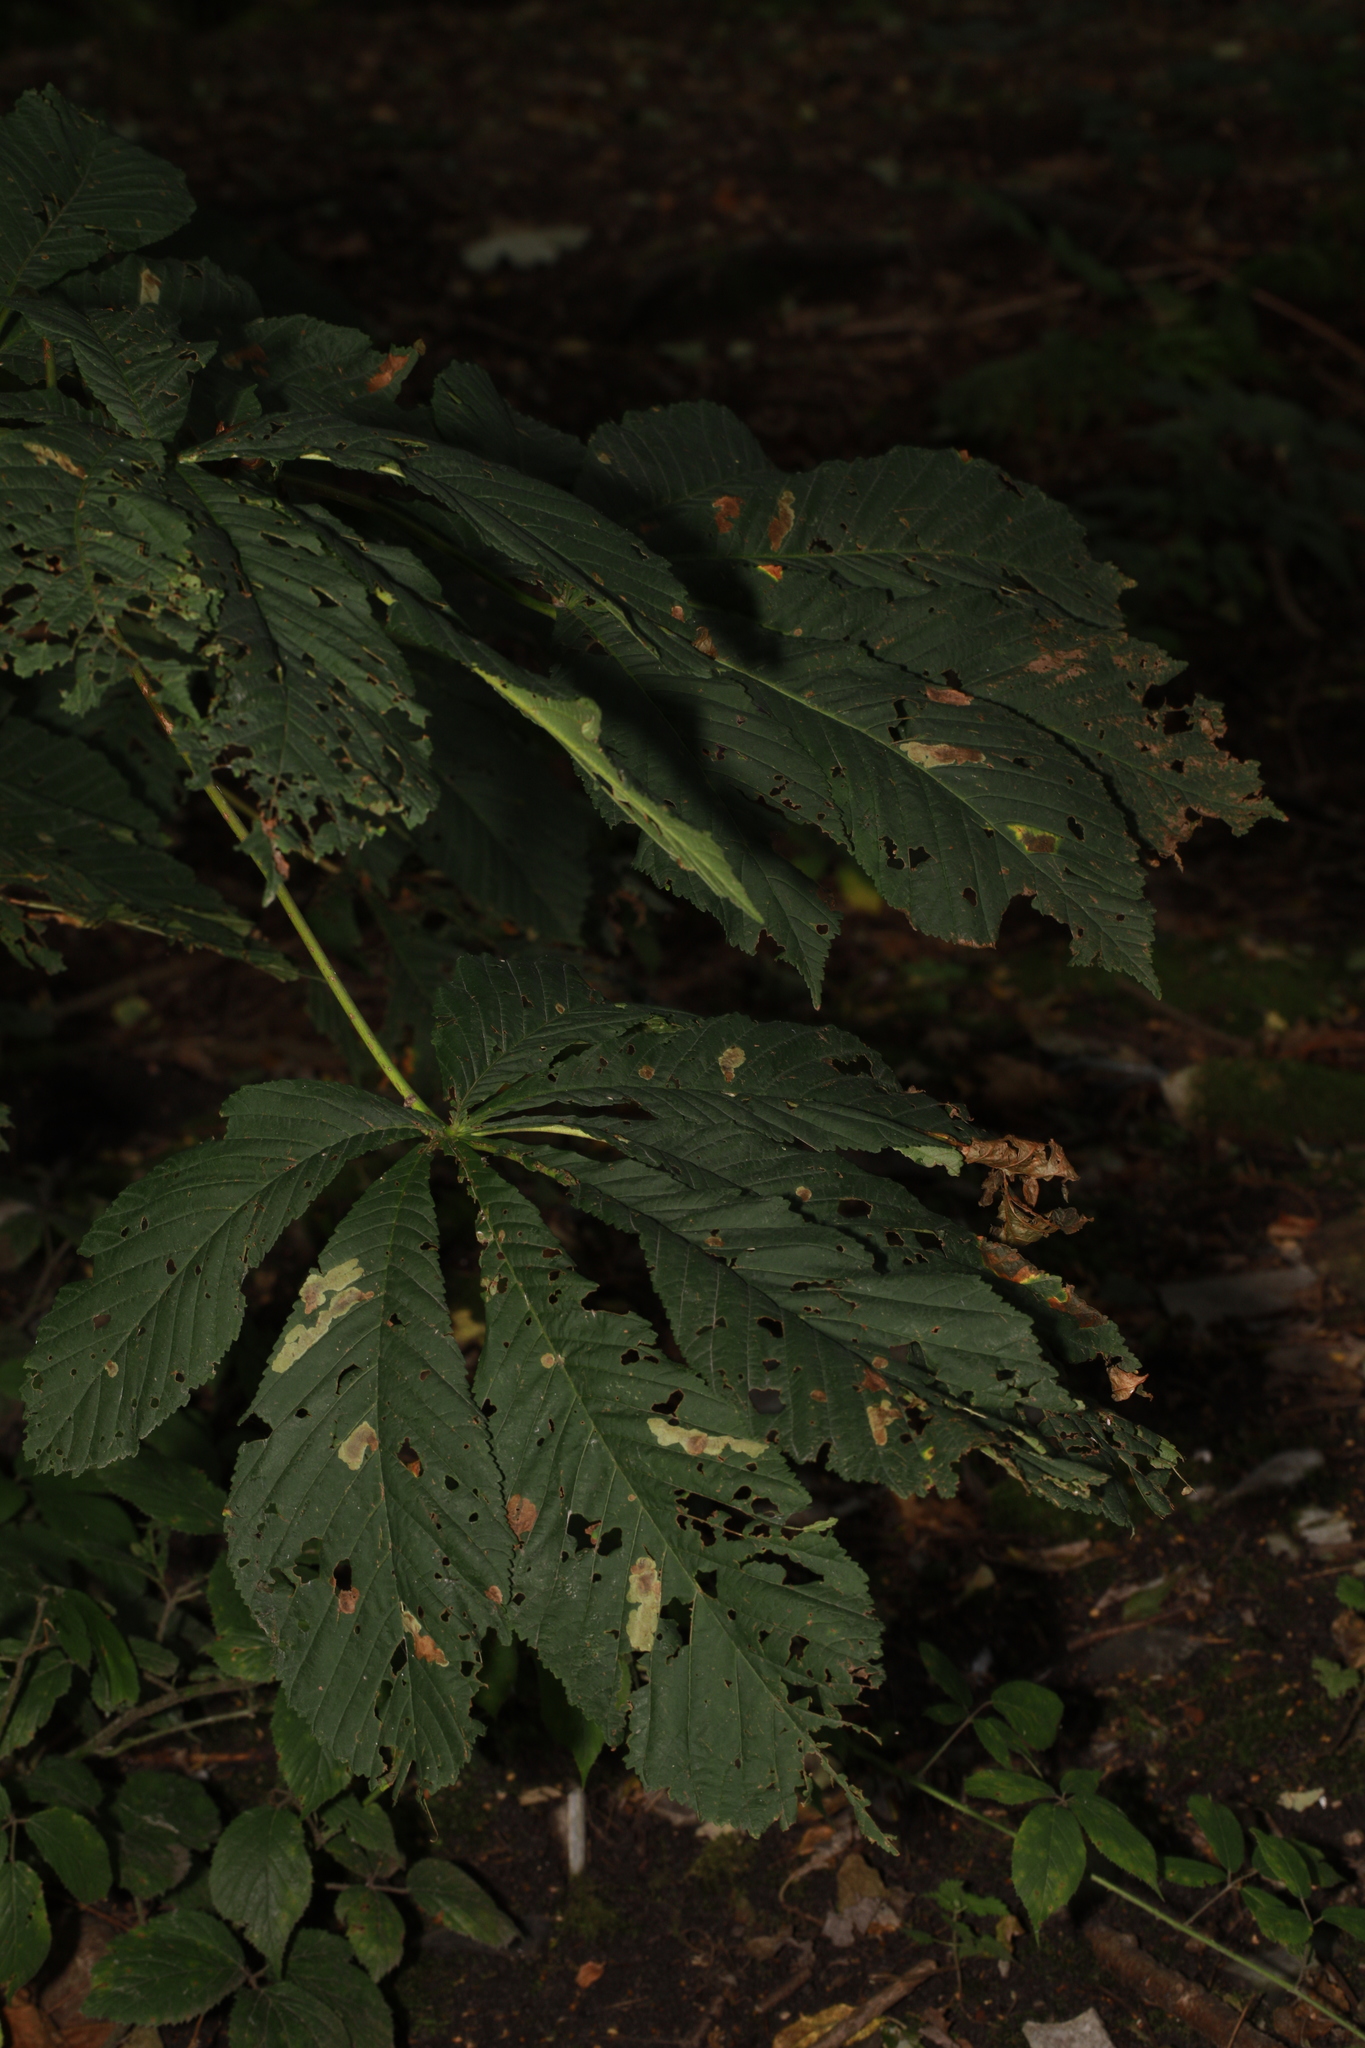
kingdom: Animalia
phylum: Arthropoda
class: Insecta
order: Lepidoptera
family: Gracillariidae
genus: Cameraria
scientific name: Cameraria ohridella
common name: Horse-chestnut leaf-miner
